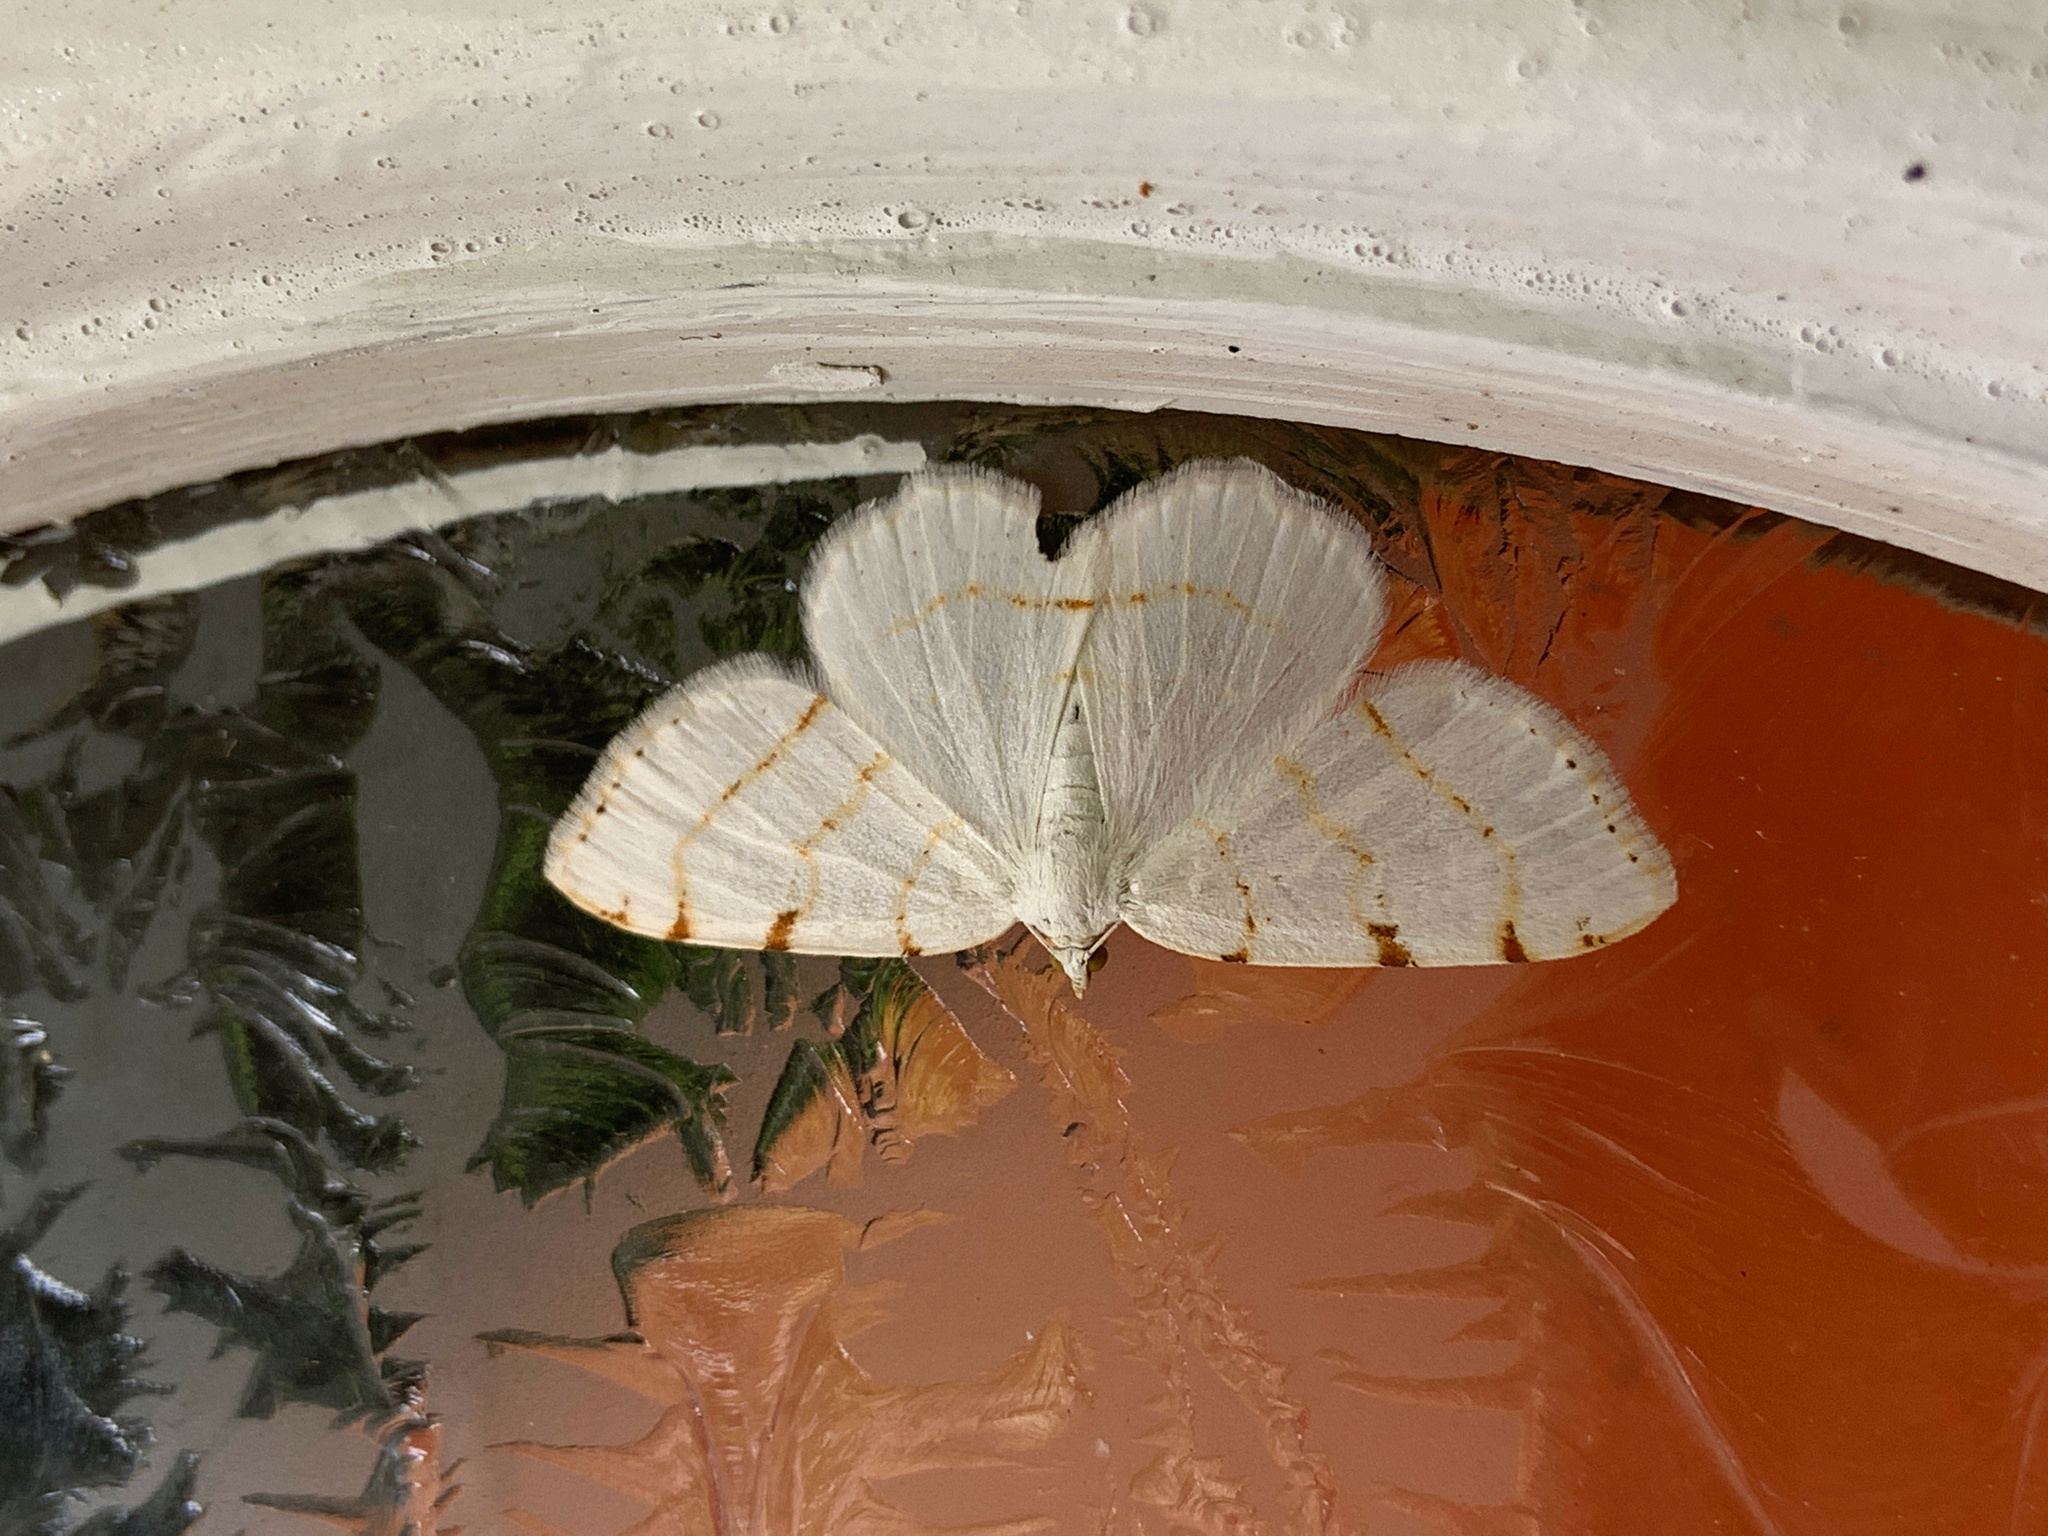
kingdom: Animalia
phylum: Arthropoda
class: Insecta
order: Lepidoptera
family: Geometridae
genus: Macaria
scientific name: Macaria pustularia
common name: Lesser maple spanworm moth
